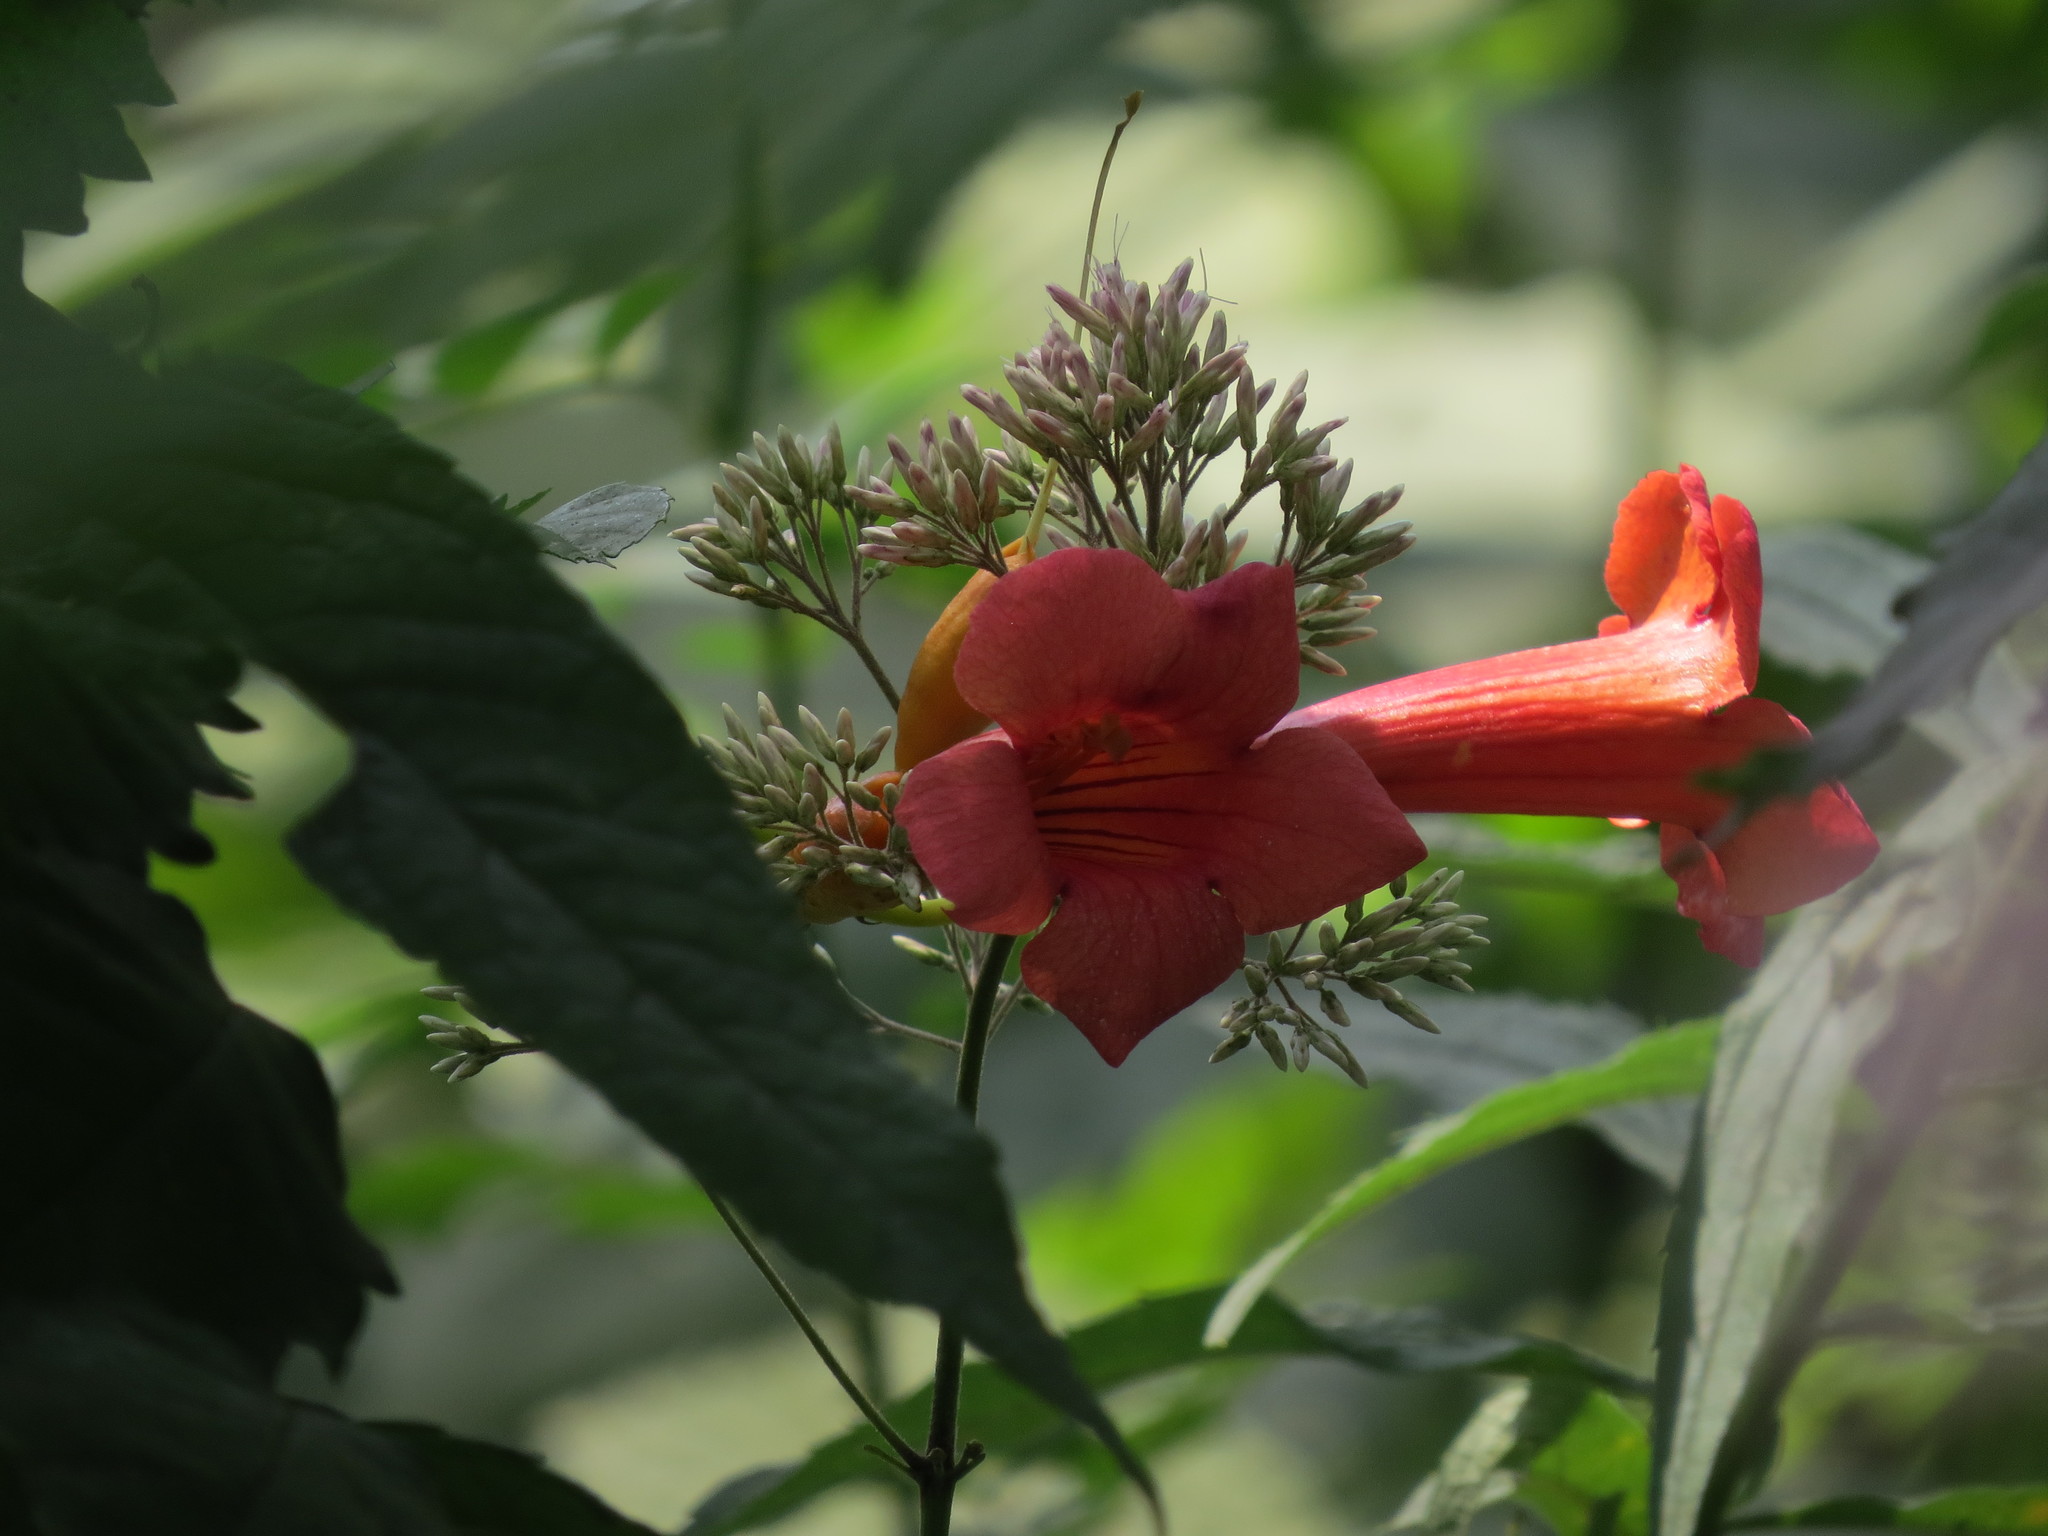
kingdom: Plantae
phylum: Tracheophyta
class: Magnoliopsida
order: Lamiales
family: Bignoniaceae
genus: Campsis
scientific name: Campsis radicans
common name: Trumpet-creeper
